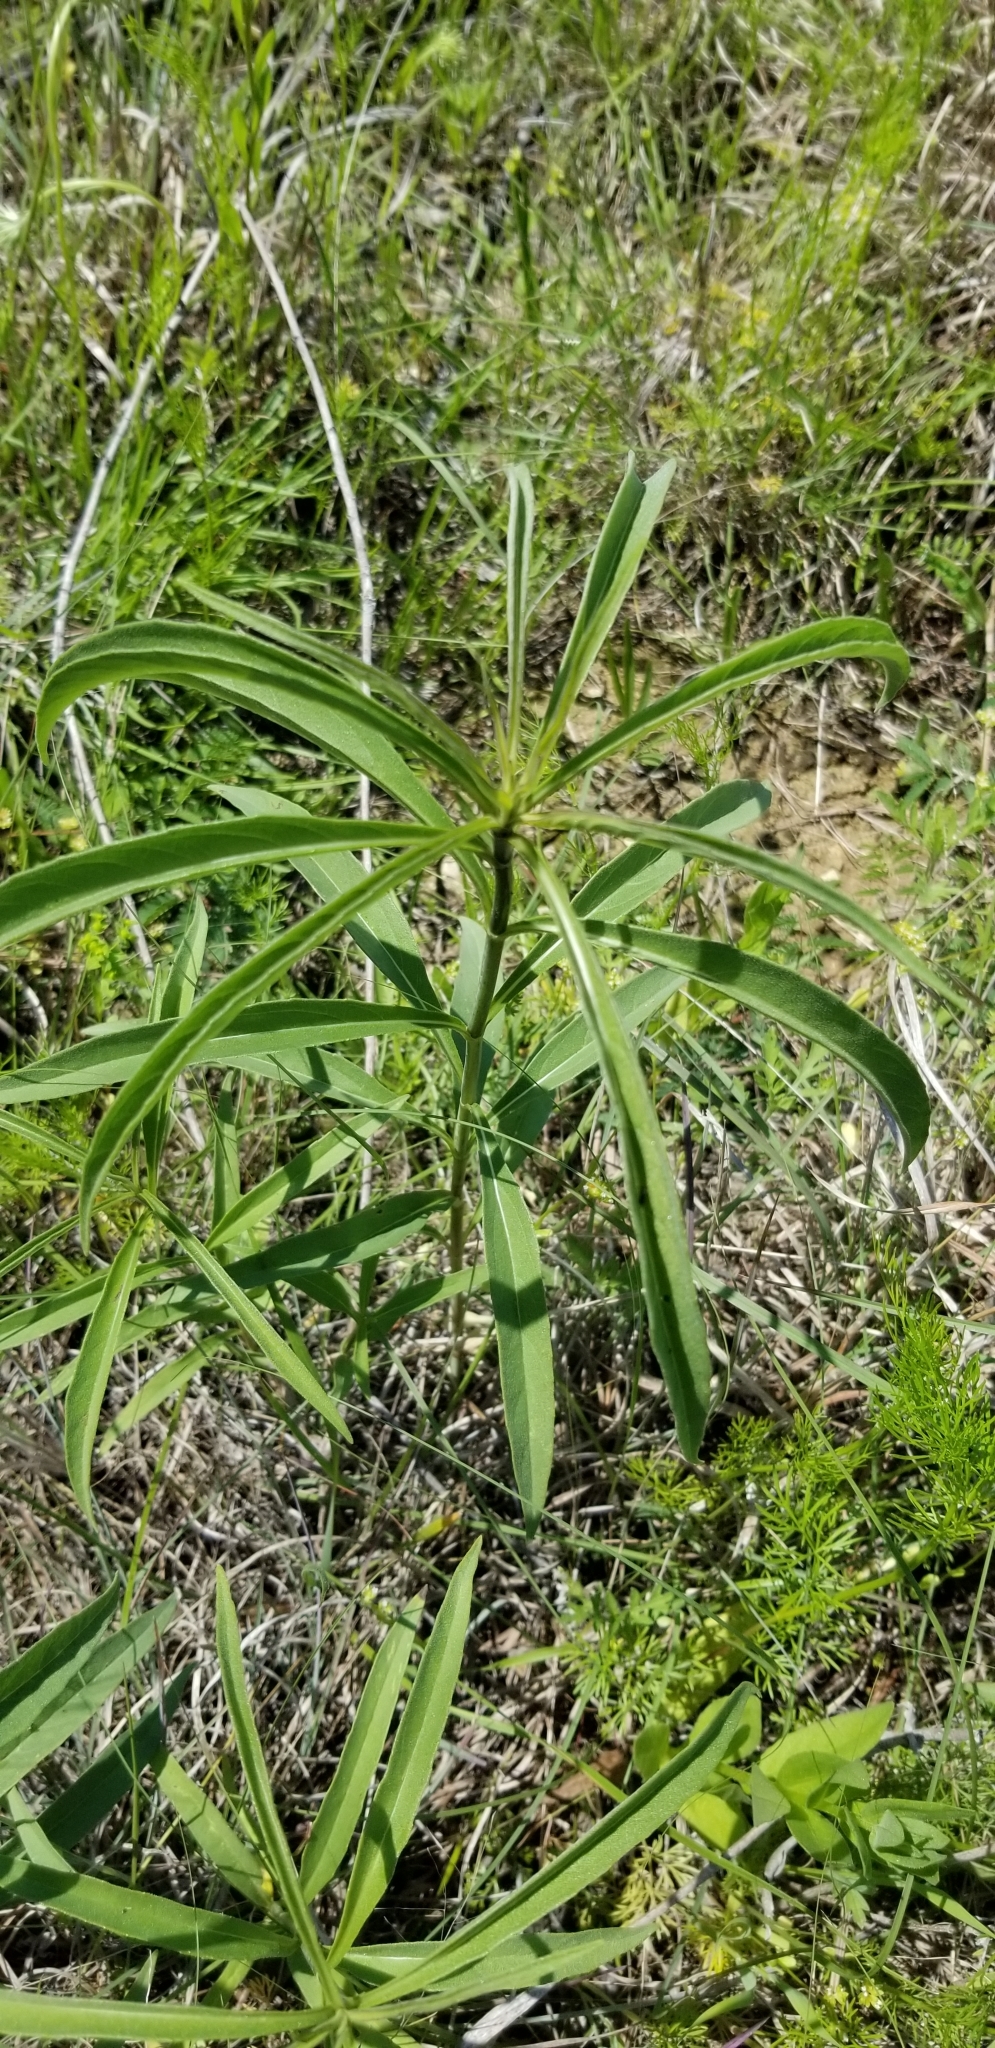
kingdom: Plantae
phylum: Tracheophyta
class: Magnoliopsida
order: Asterales
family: Asteraceae
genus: Helianthus
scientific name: Helianthus maximiliani
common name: Maximilian's sunflower
